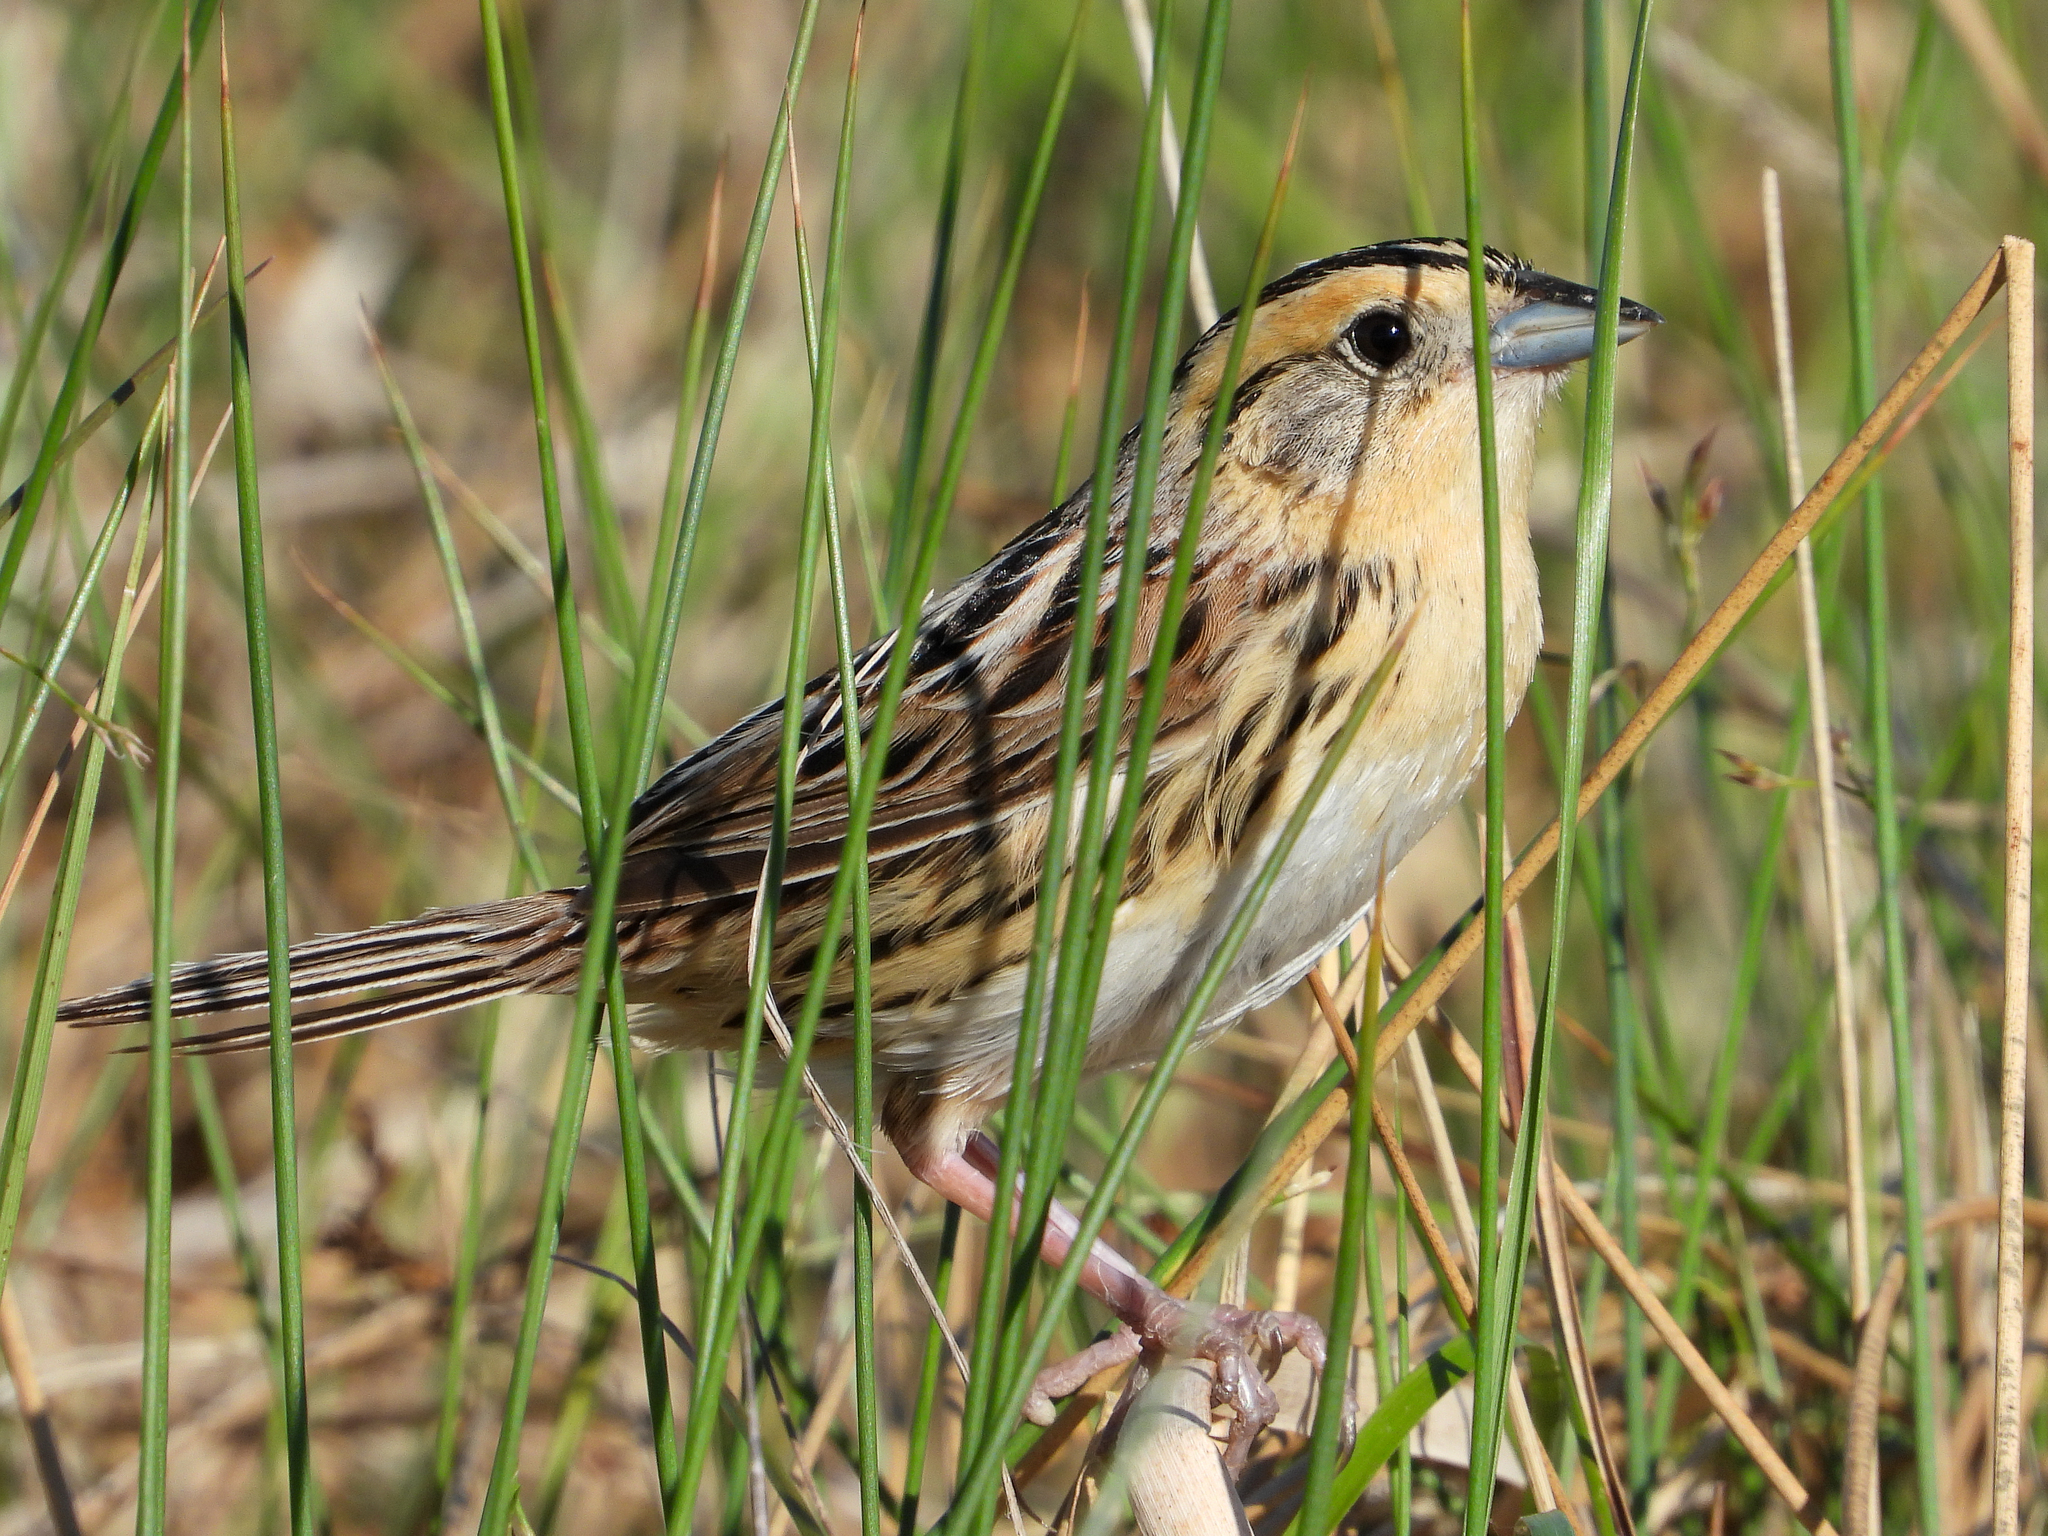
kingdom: Animalia
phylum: Chordata
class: Aves
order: Passeriformes
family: Passerellidae
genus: Ammospiza
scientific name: Ammospiza leconteii
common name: Le conte's sparrow
